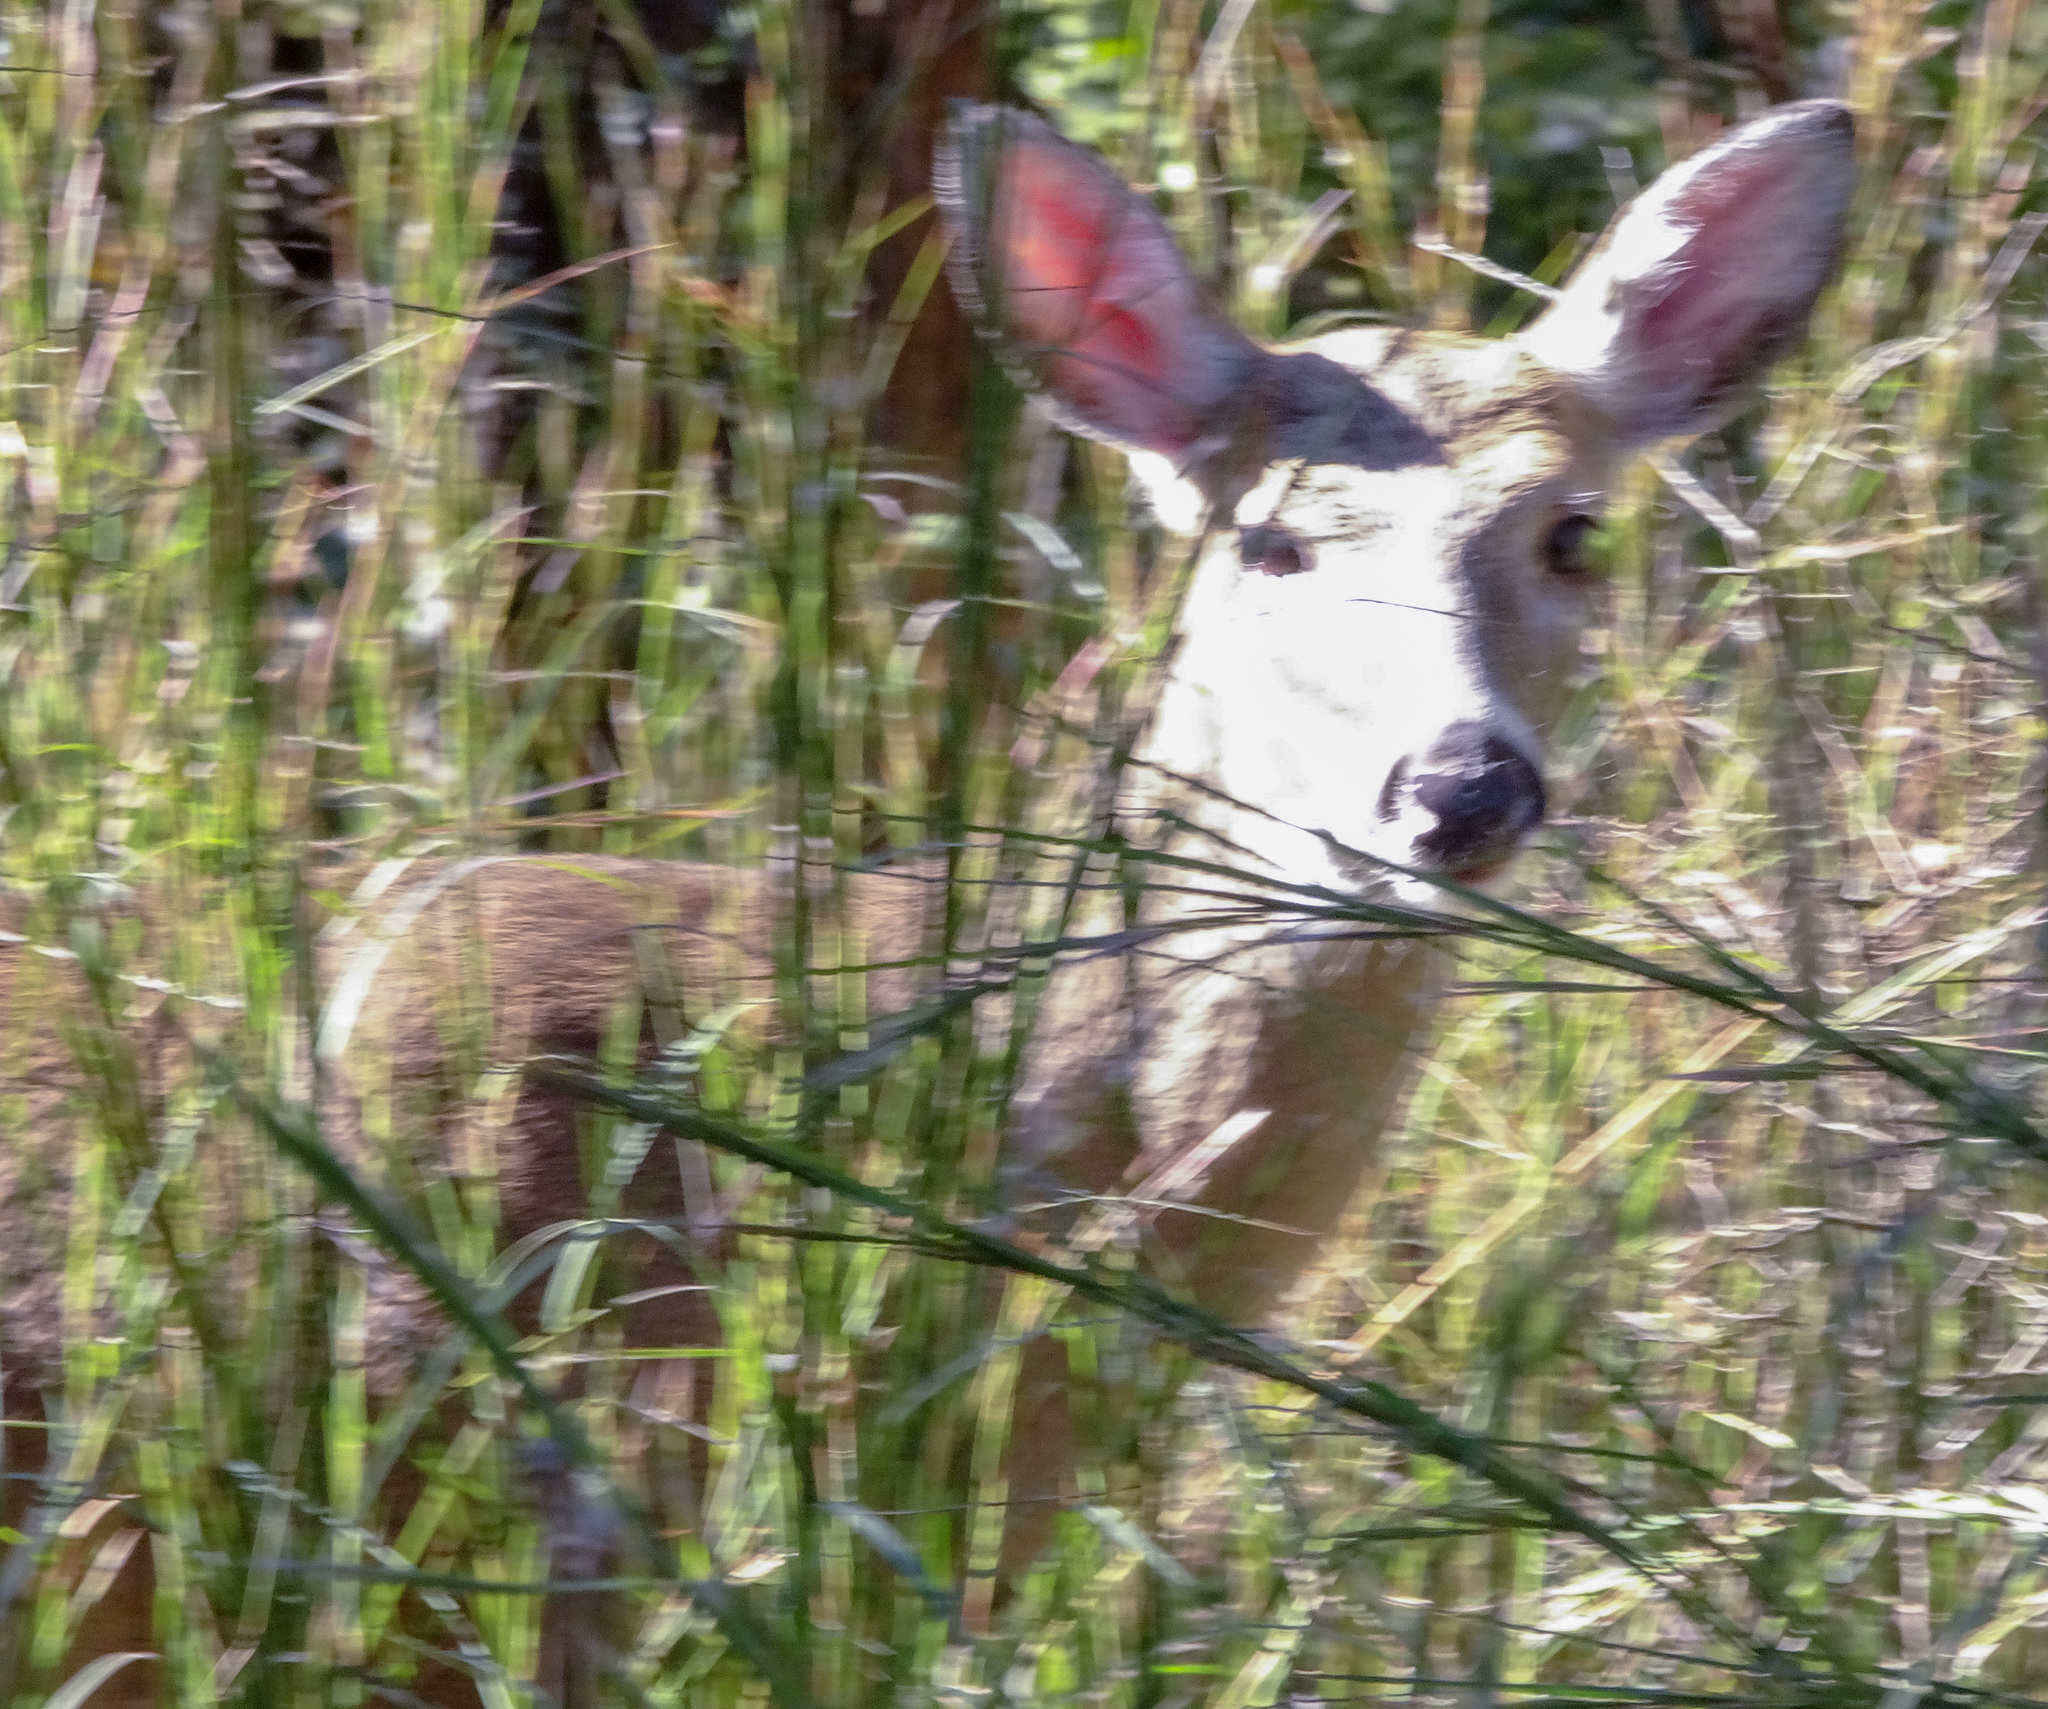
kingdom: Animalia
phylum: Chordata
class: Mammalia
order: Artiodactyla
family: Cervidae
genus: Odocoileus
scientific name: Odocoileus virginianus
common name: White-tailed deer
